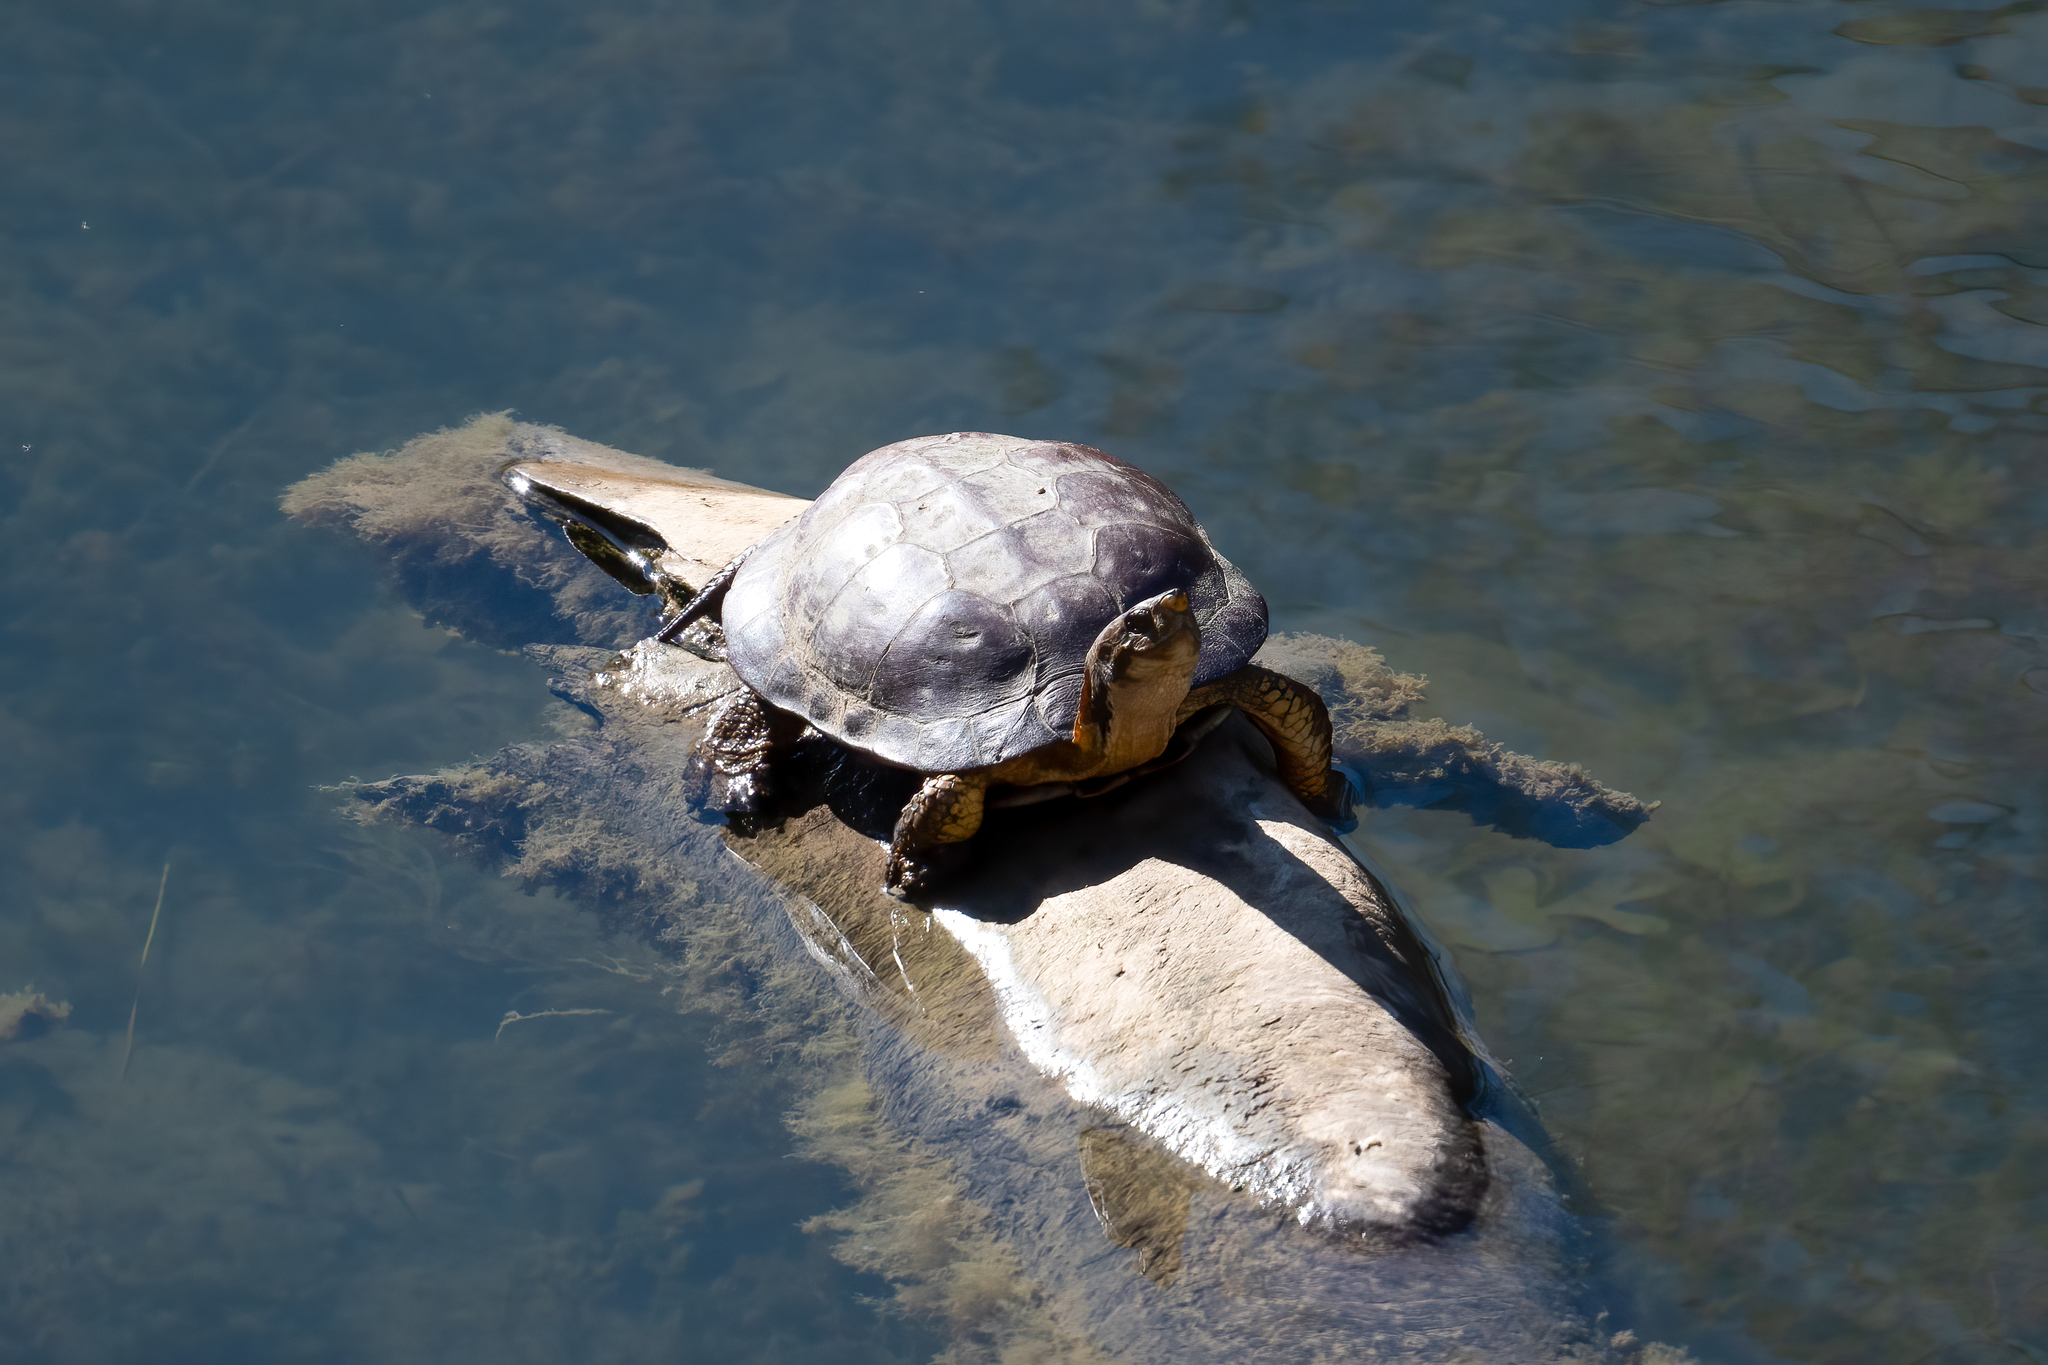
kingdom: Animalia
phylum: Chordata
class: Testudines
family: Emydidae
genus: Actinemys
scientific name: Actinemys marmorata
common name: Western pond turtle
